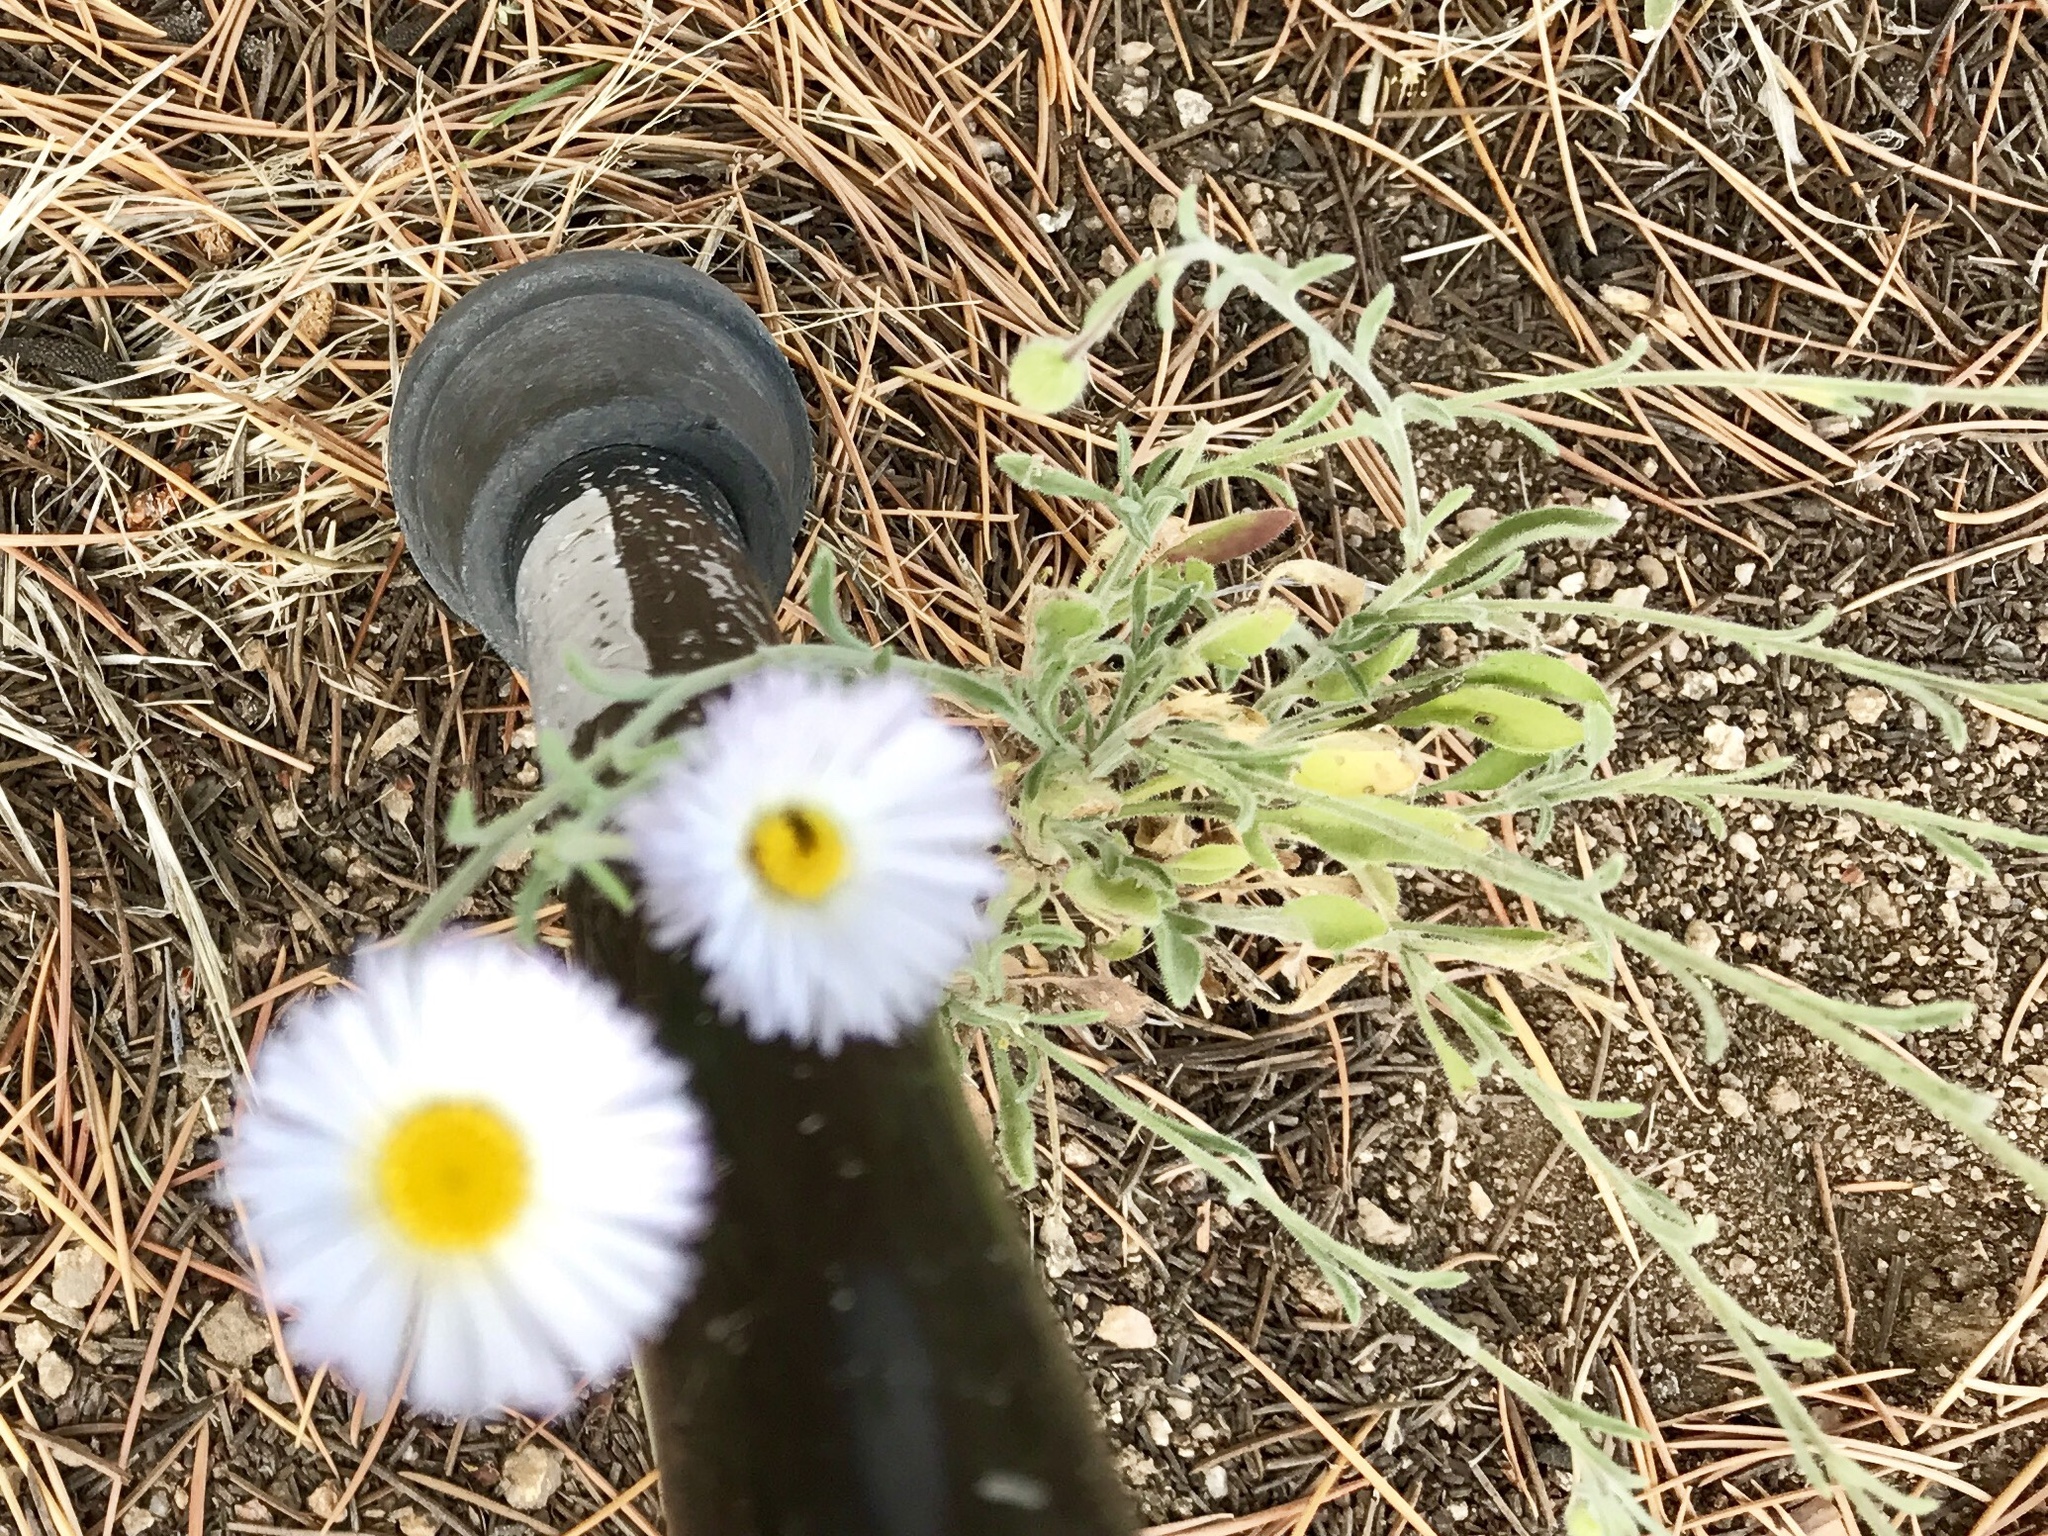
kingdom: Plantae
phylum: Tracheophyta
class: Magnoliopsida
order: Asterales
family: Asteraceae
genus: Erigeron
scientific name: Erigeron divergens
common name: Diffuse fleabane
